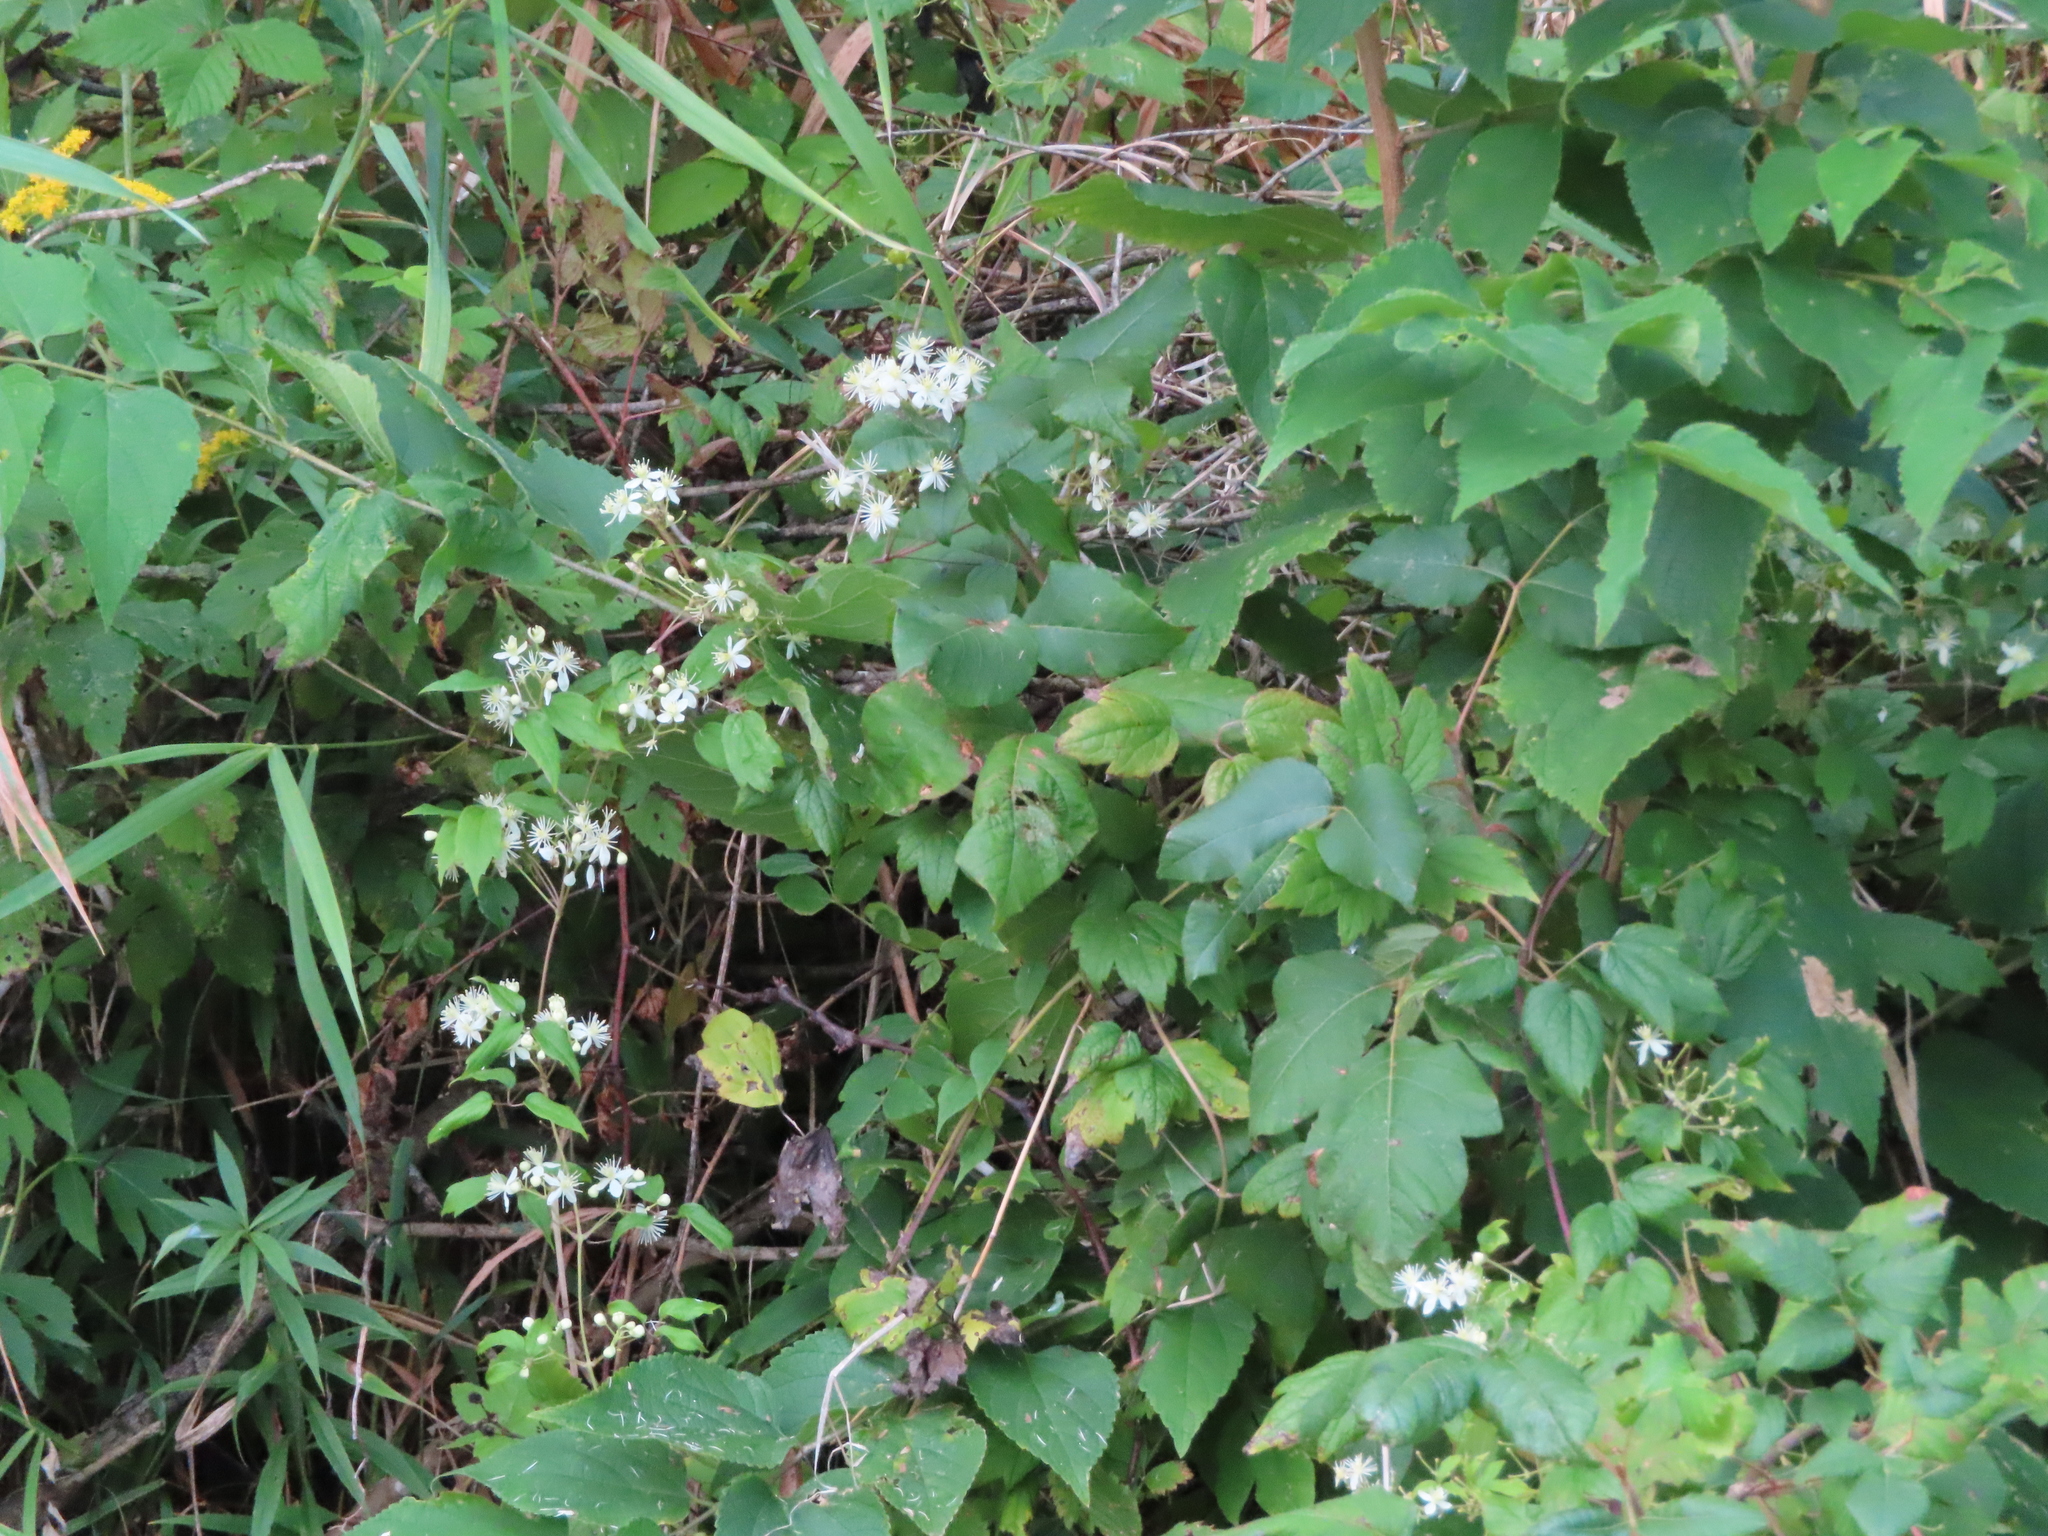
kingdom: Plantae
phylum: Tracheophyta
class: Magnoliopsida
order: Ranunculales
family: Ranunculaceae
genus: Clematis
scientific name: Clematis virginiana
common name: Virgin's-bower
